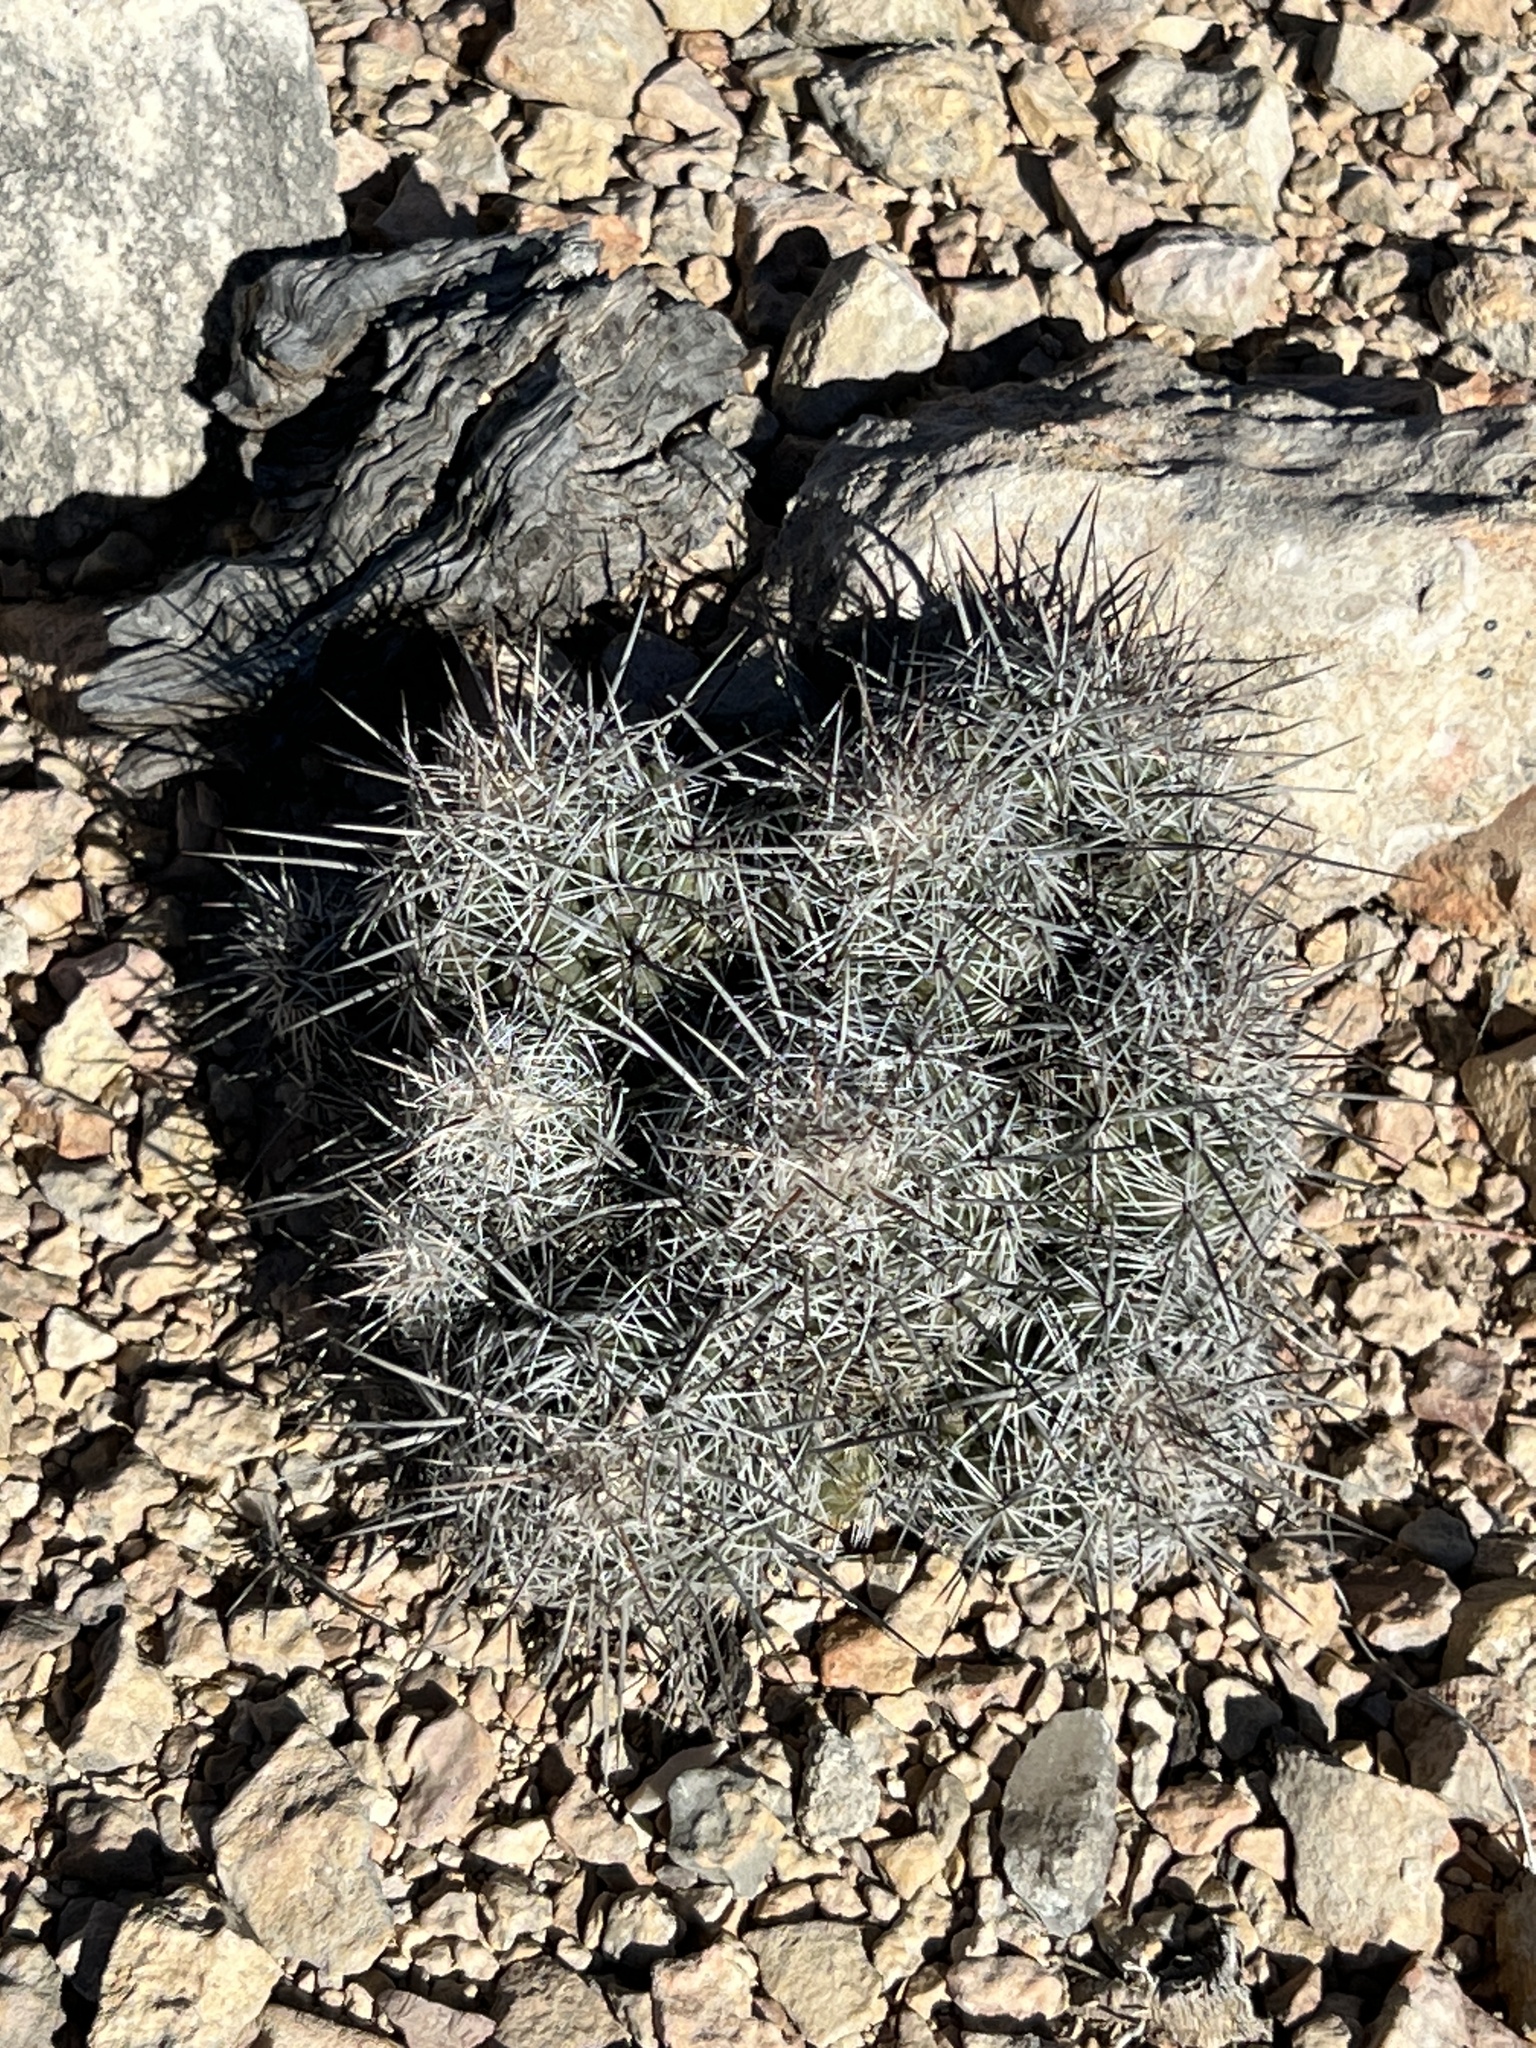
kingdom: Plantae
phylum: Tracheophyta
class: Magnoliopsida
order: Caryophyllales
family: Cactaceae
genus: Cochemiea
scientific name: Cochemiea conoidea
